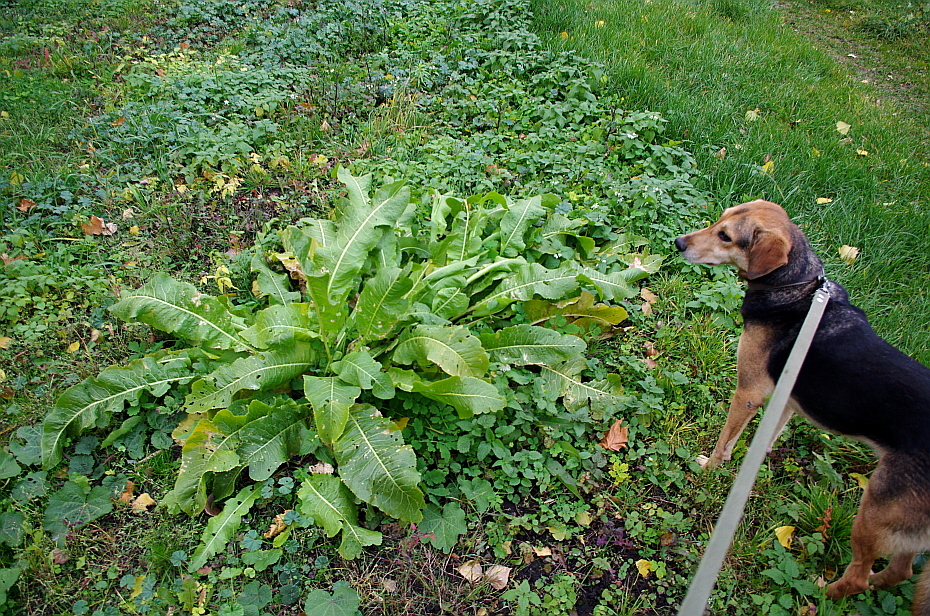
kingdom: Plantae
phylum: Tracheophyta
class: Magnoliopsida
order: Brassicales
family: Brassicaceae
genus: Armoracia
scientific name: Armoracia rusticana
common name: Horseradish
